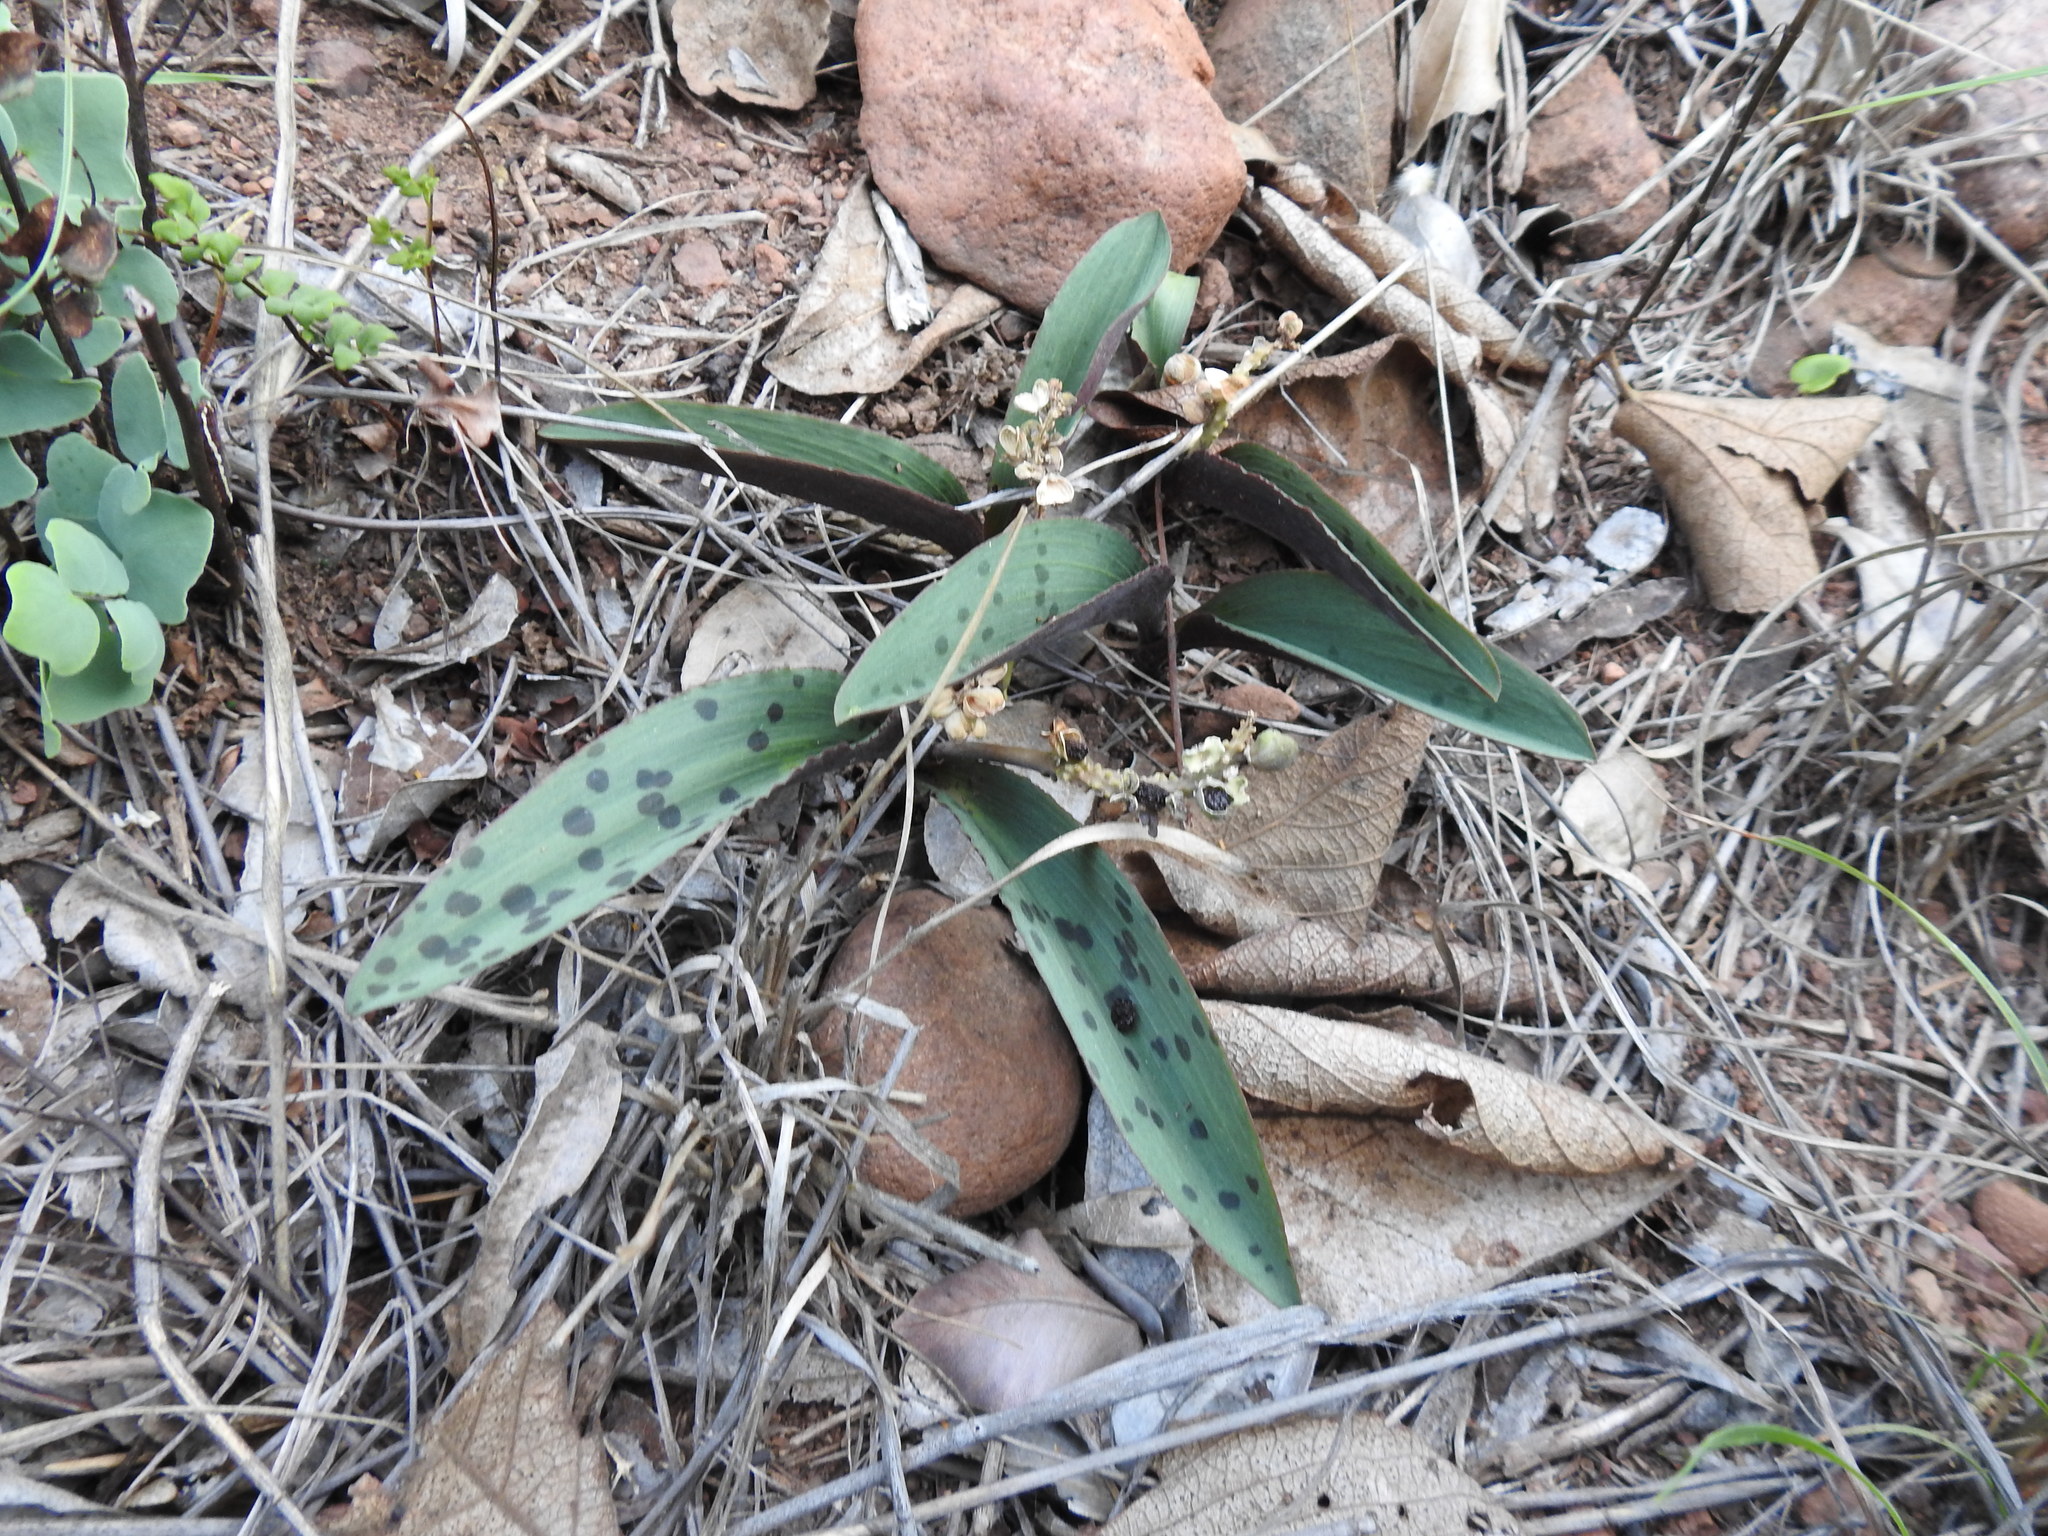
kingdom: Plantae
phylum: Tracheophyta
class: Liliopsida
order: Asparagales
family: Asparagaceae
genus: Drimiopsis
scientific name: Drimiopsis burkei
